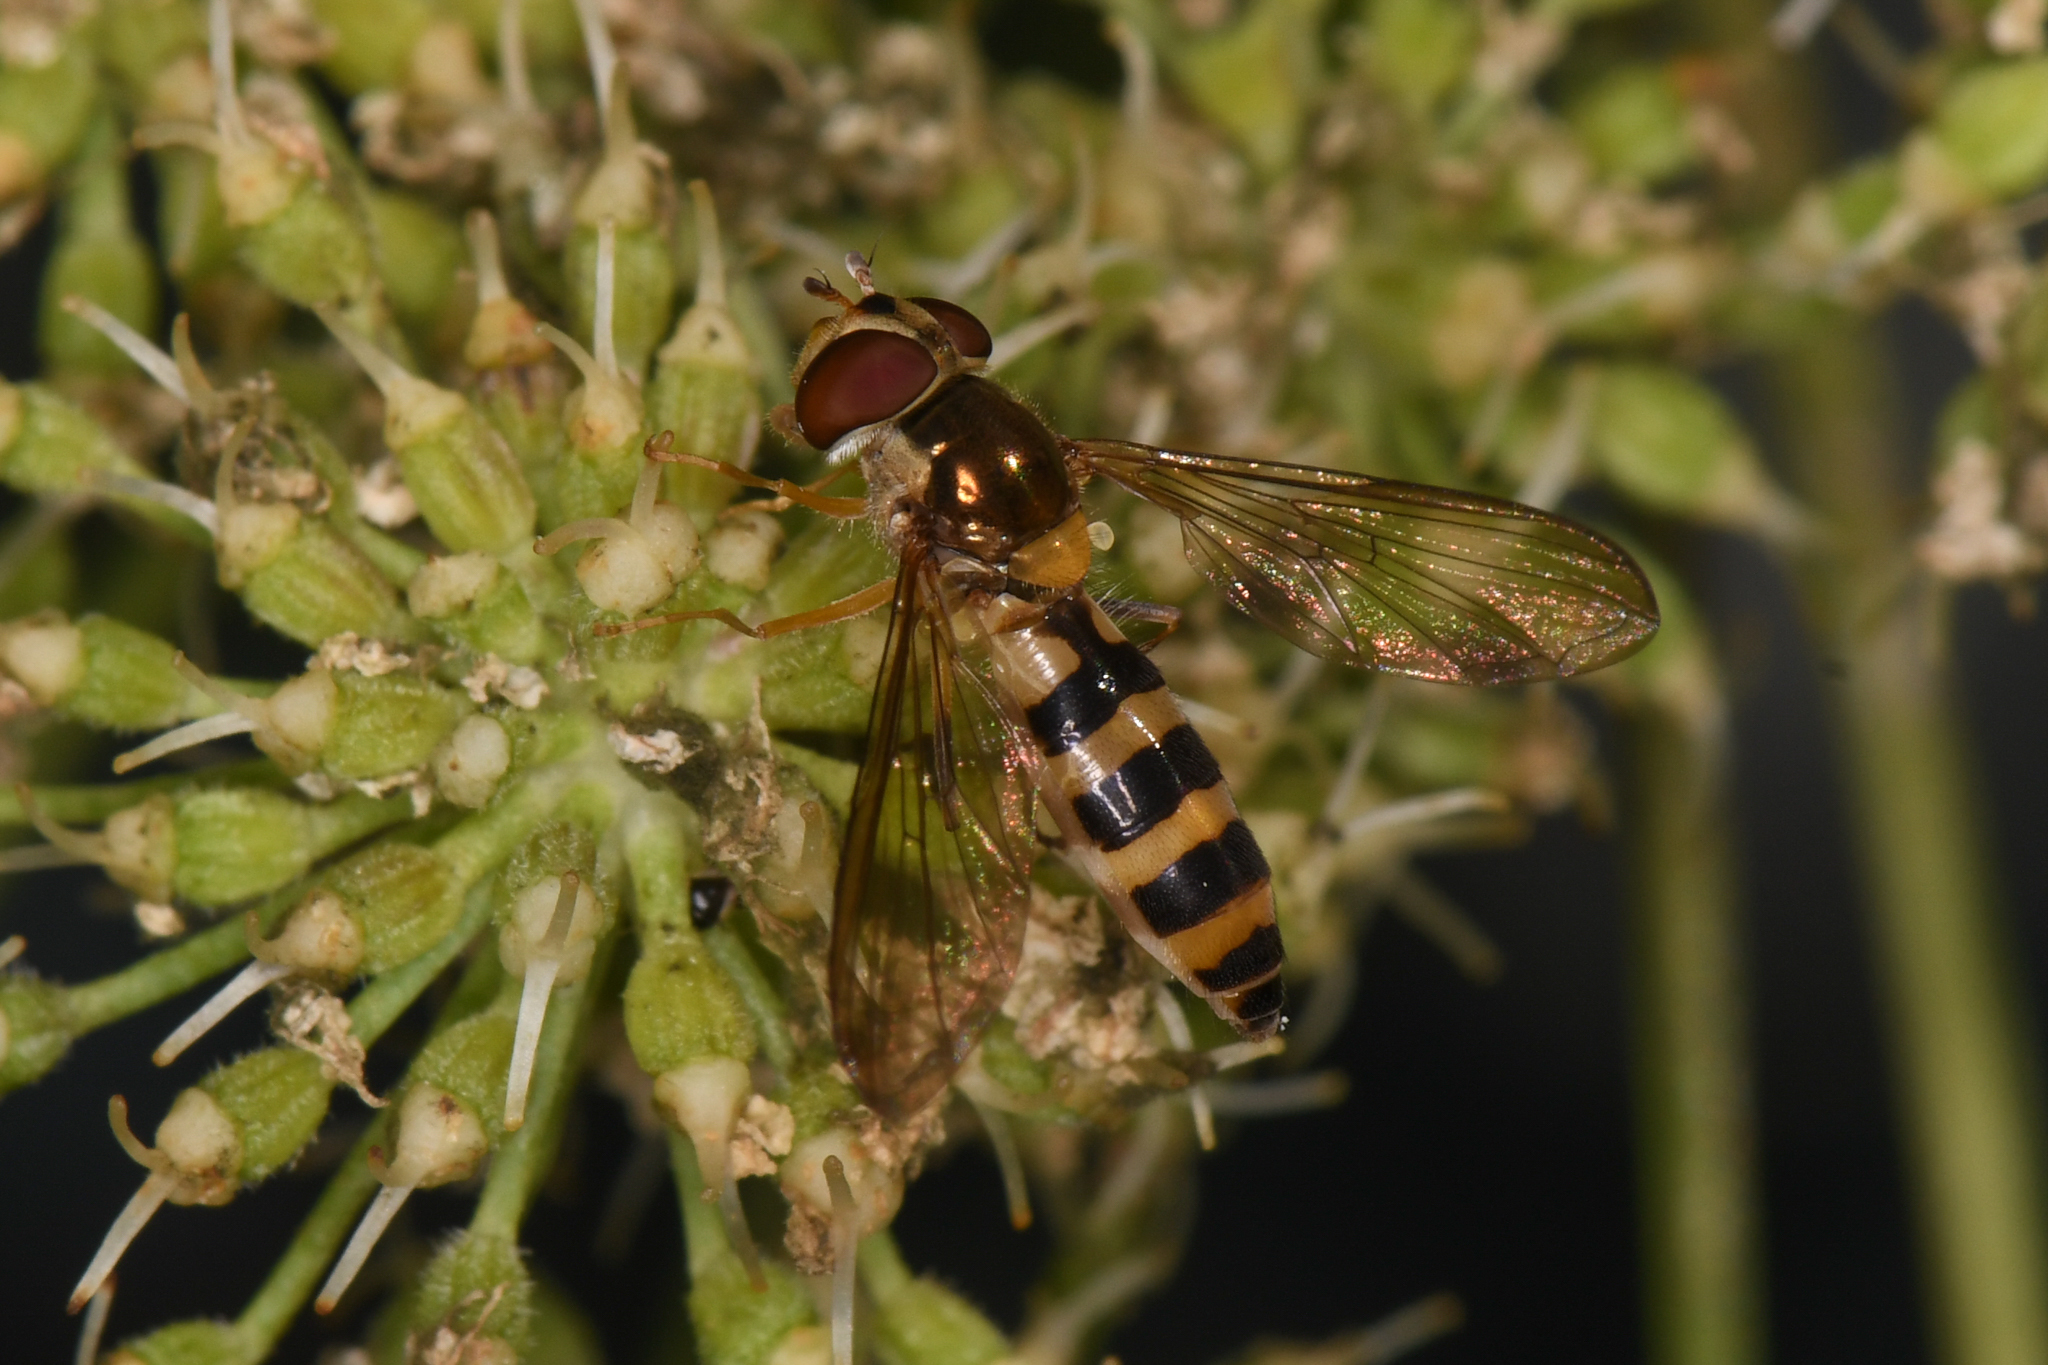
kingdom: Animalia
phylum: Arthropoda
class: Insecta
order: Diptera
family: Syrphidae
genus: Meliscaeva
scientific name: Meliscaeva cinctella
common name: American thintail fly
